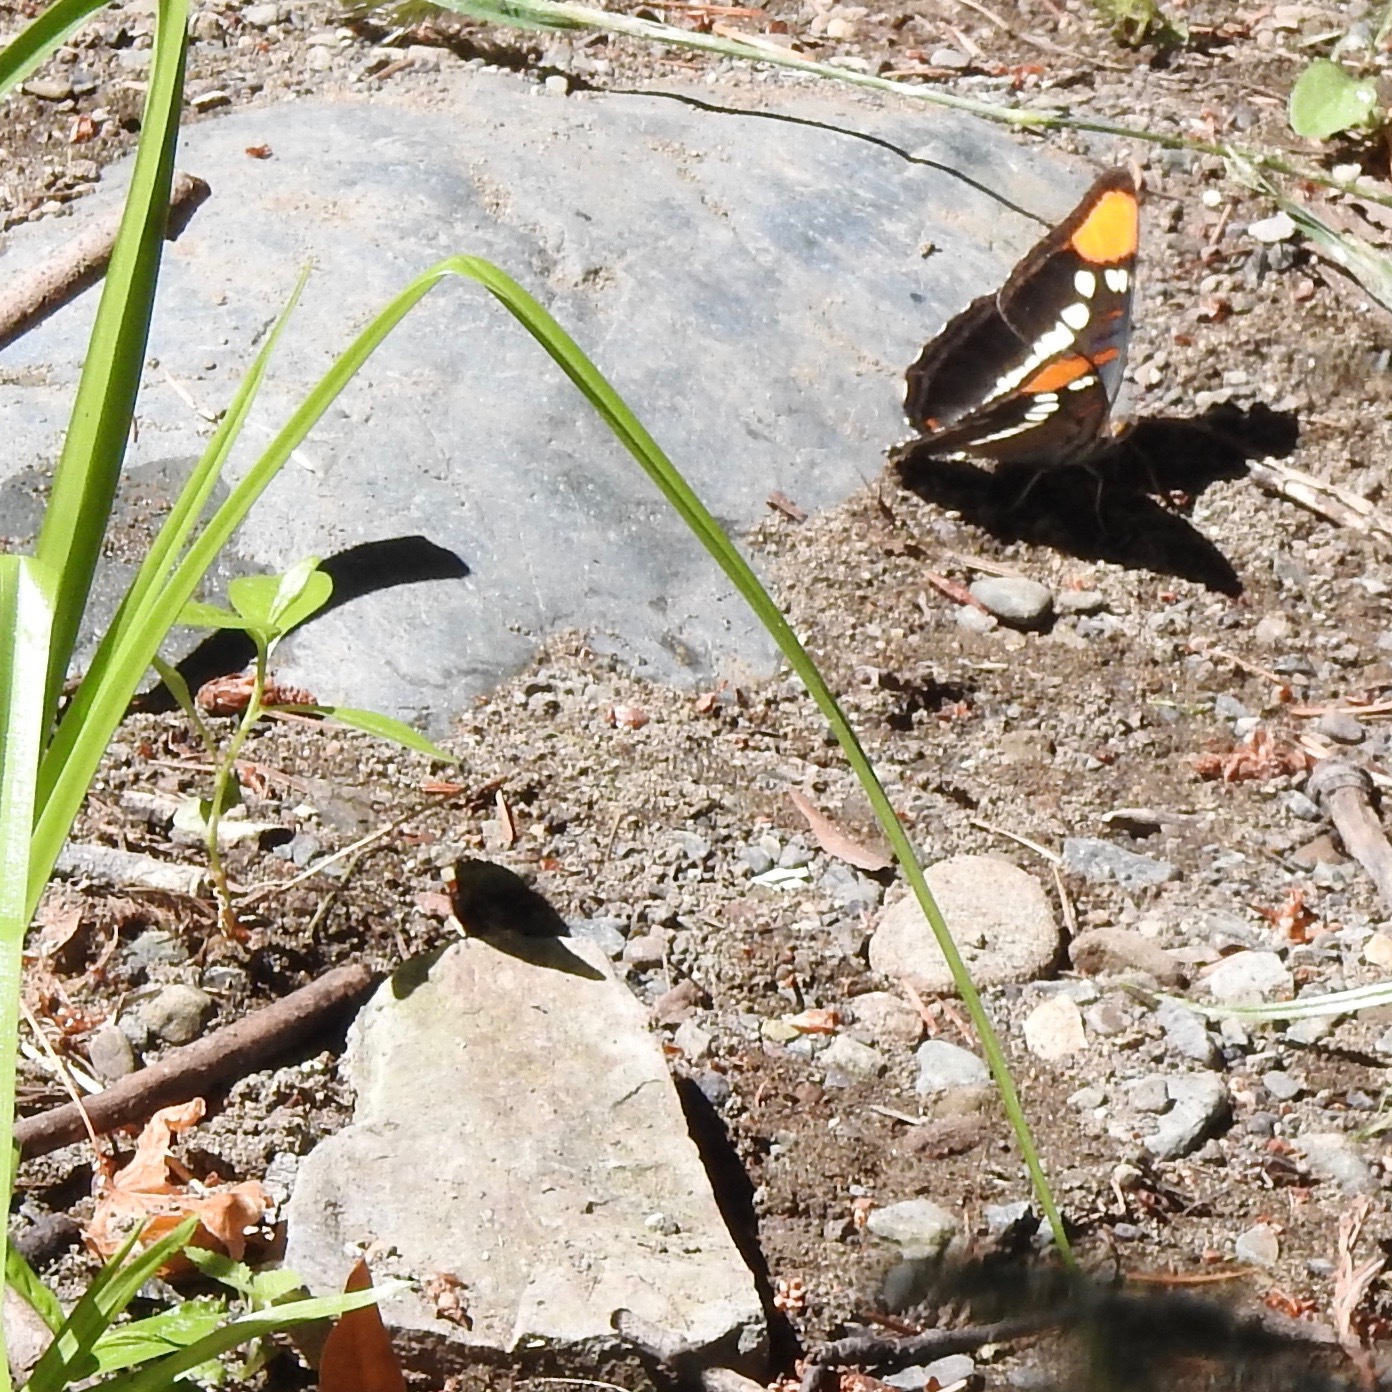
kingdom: Animalia
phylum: Arthropoda
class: Insecta
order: Lepidoptera
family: Nymphalidae
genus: Limenitis
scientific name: Limenitis bredowii
